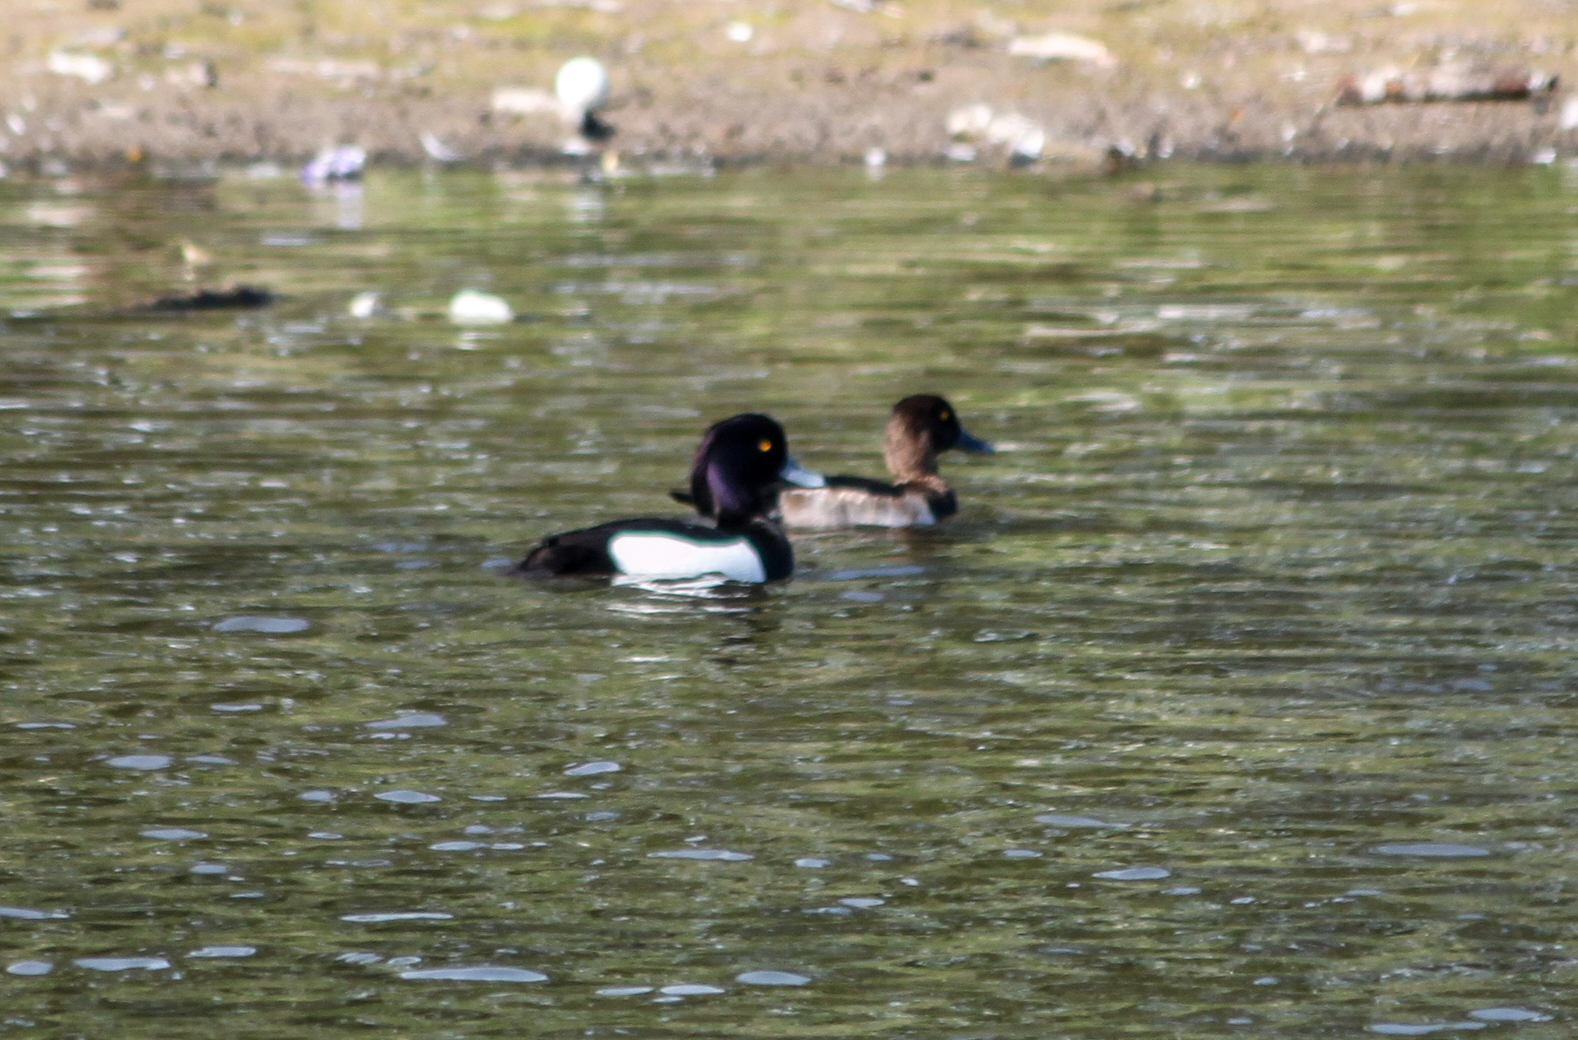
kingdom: Animalia
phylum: Chordata
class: Aves
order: Anseriformes
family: Anatidae
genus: Aythya
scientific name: Aythya fuligula
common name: Tufted duck
